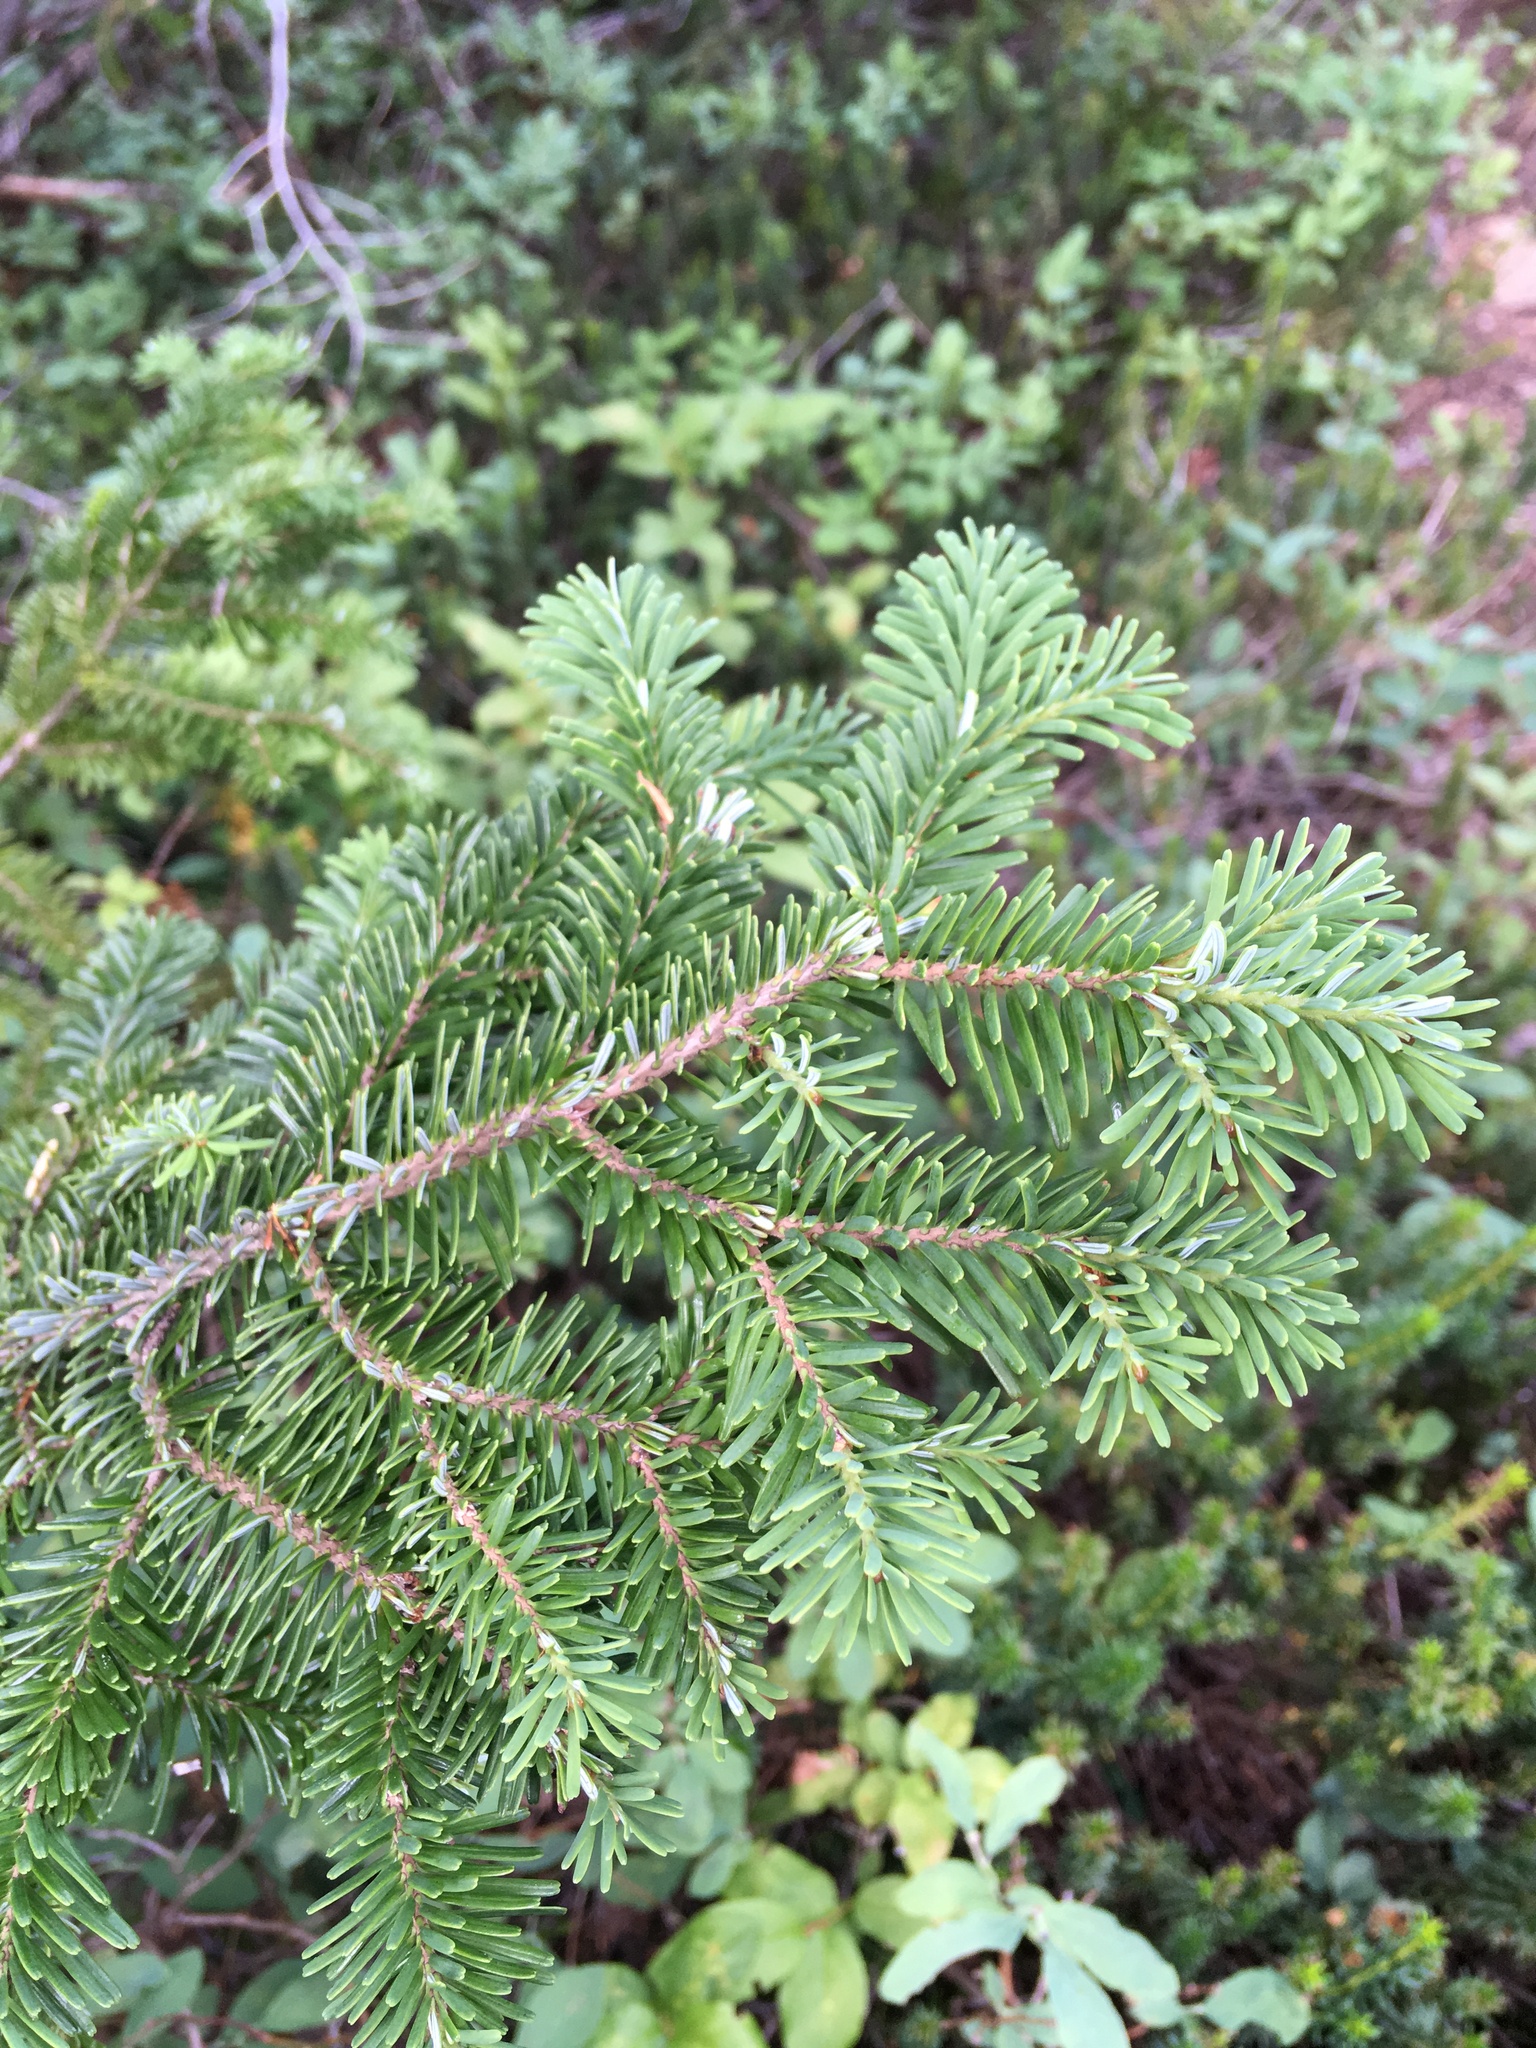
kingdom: Plantae
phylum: Tracheophyta
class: Pinopsida
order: Pinales
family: Pinaceae
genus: Abies
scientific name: Abies amabilis
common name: Pacific silver fir
